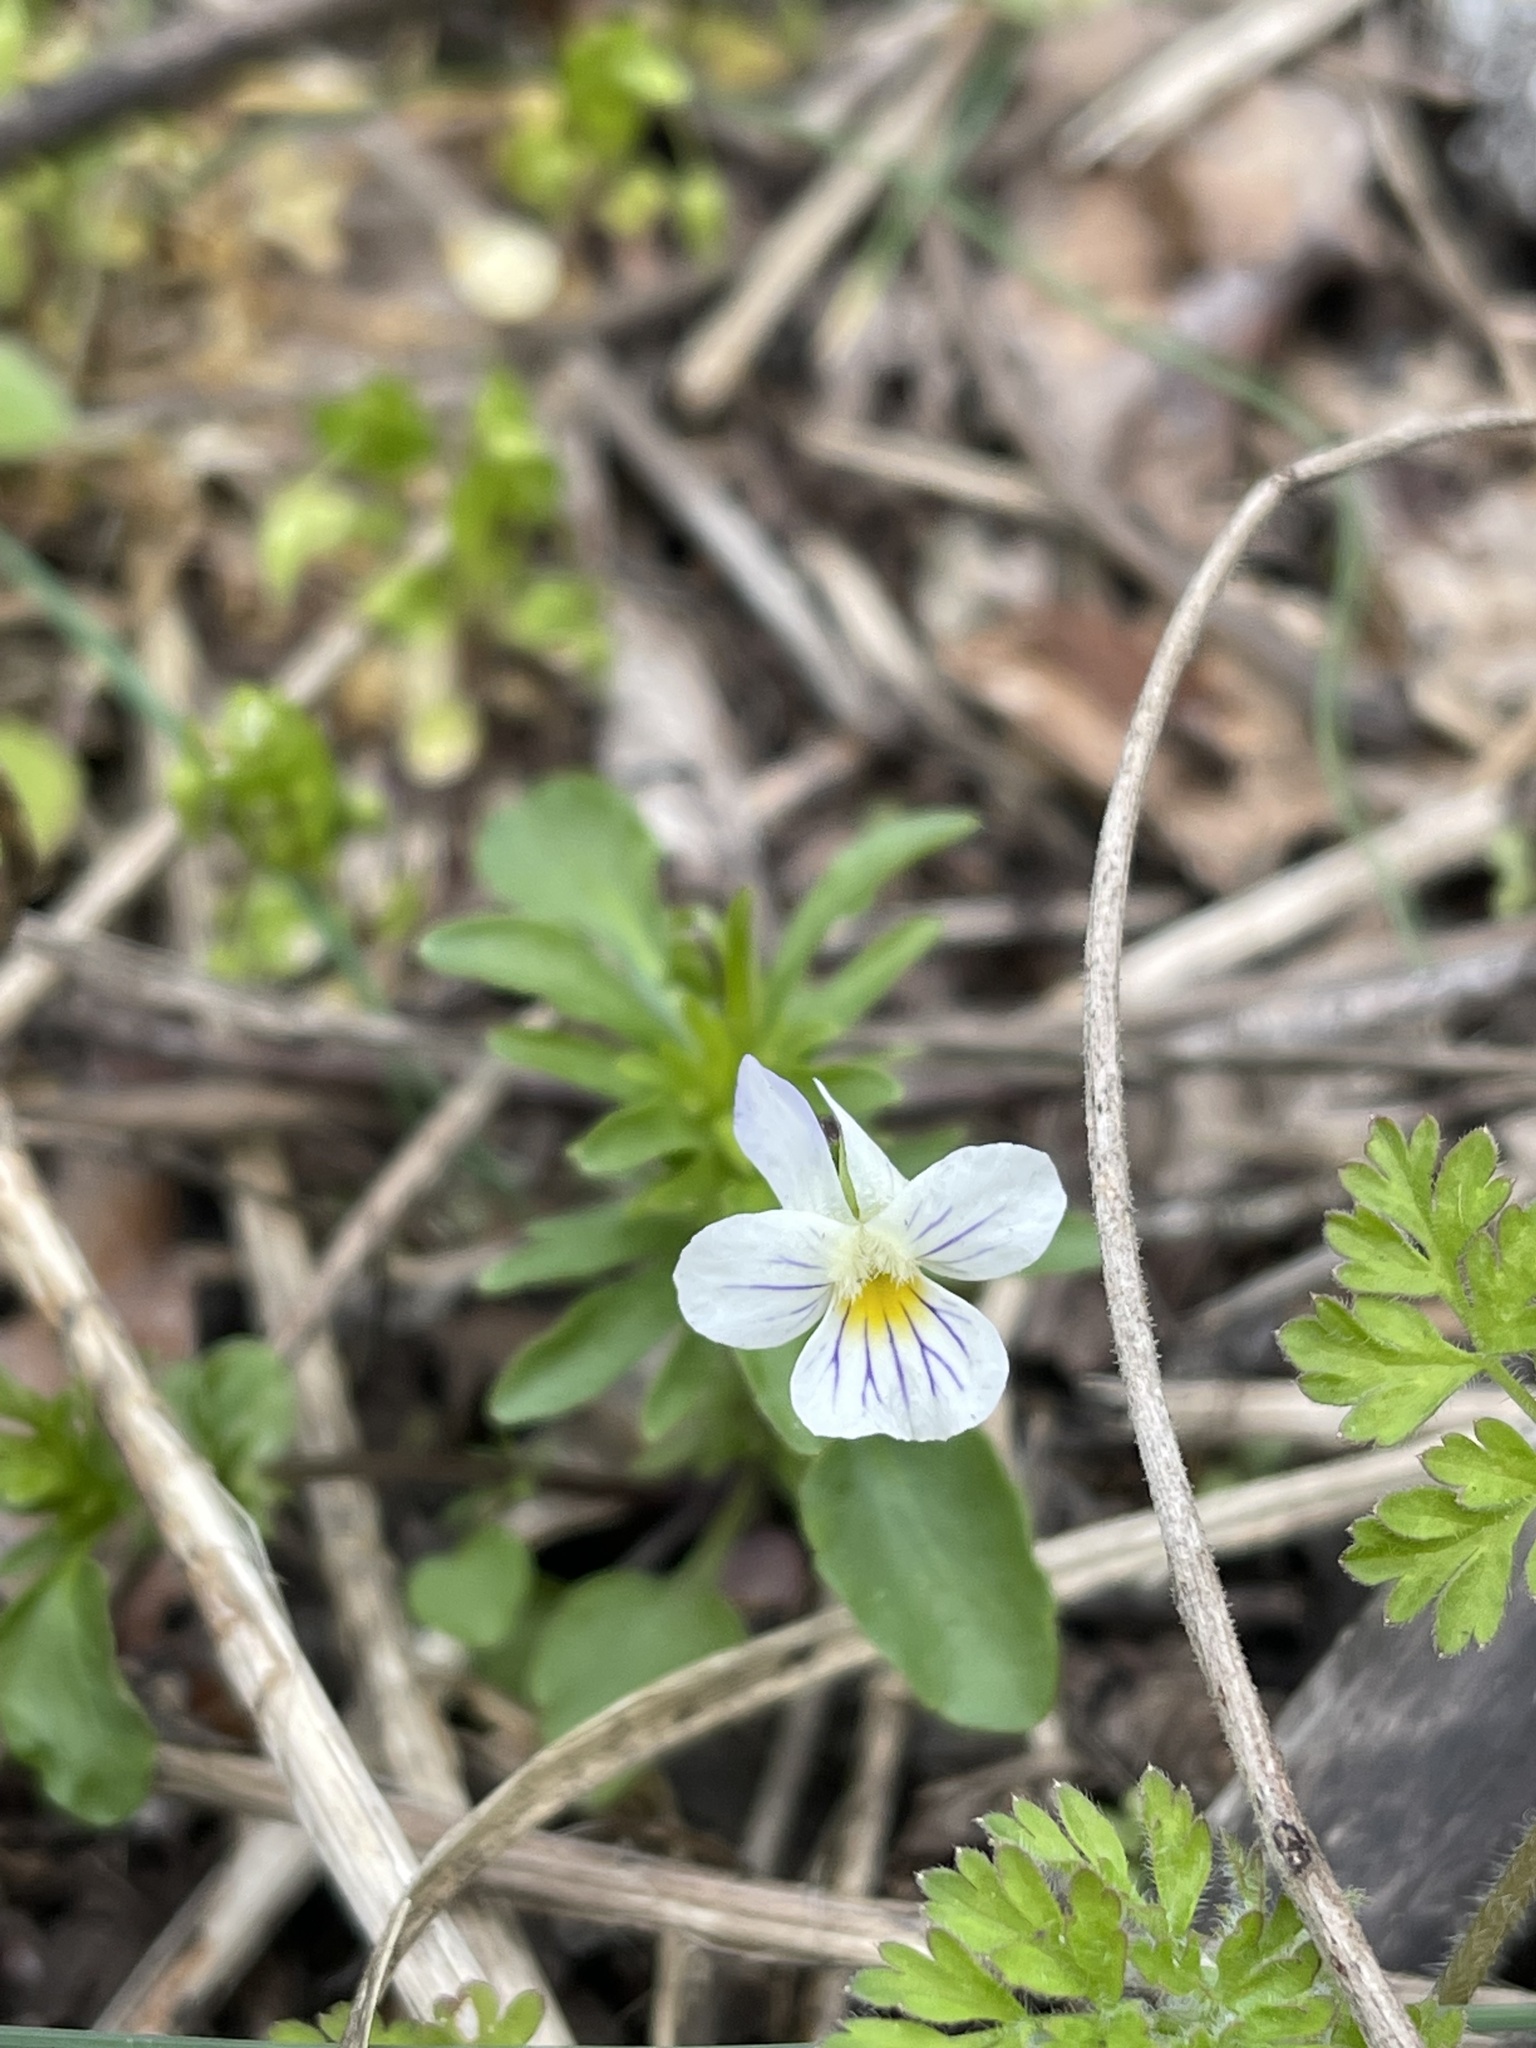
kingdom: Plantae
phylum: Tracheophyta
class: Magnoliopsida
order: Malpighiales
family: Violaceae
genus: Viola
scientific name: Viola rafinesquei
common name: American field pansy
